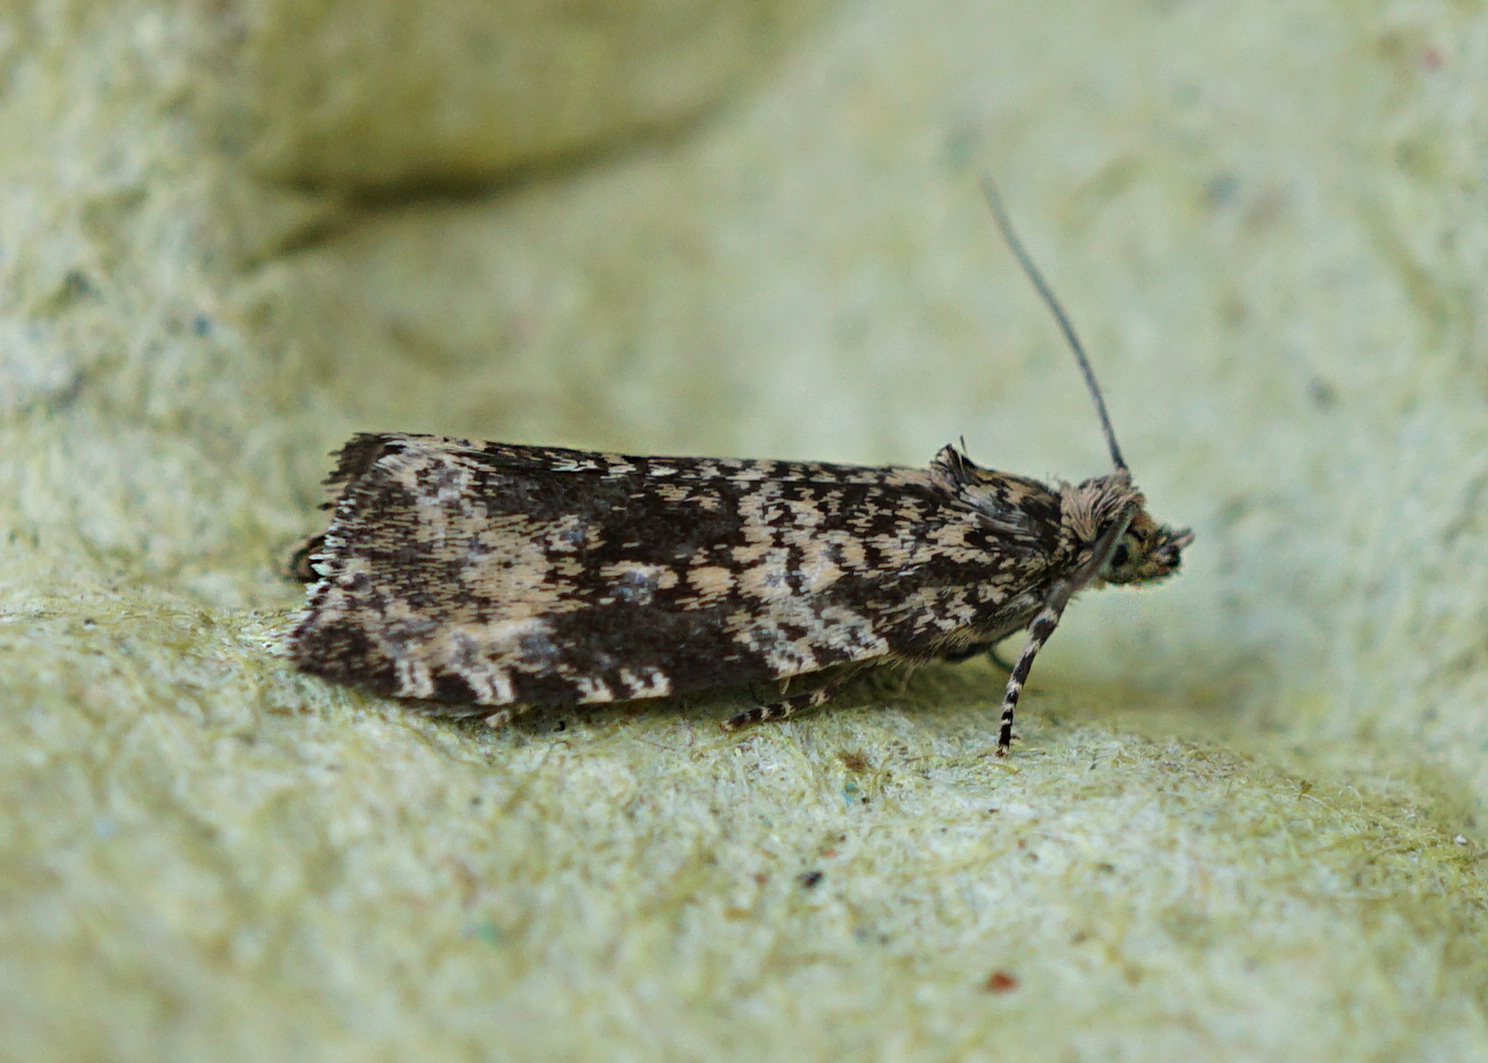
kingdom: Animalia
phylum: Arthropoda
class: Insecta
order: Lepidoptera
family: Tortricidae
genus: Syricoris
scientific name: Syricoris lacunana
